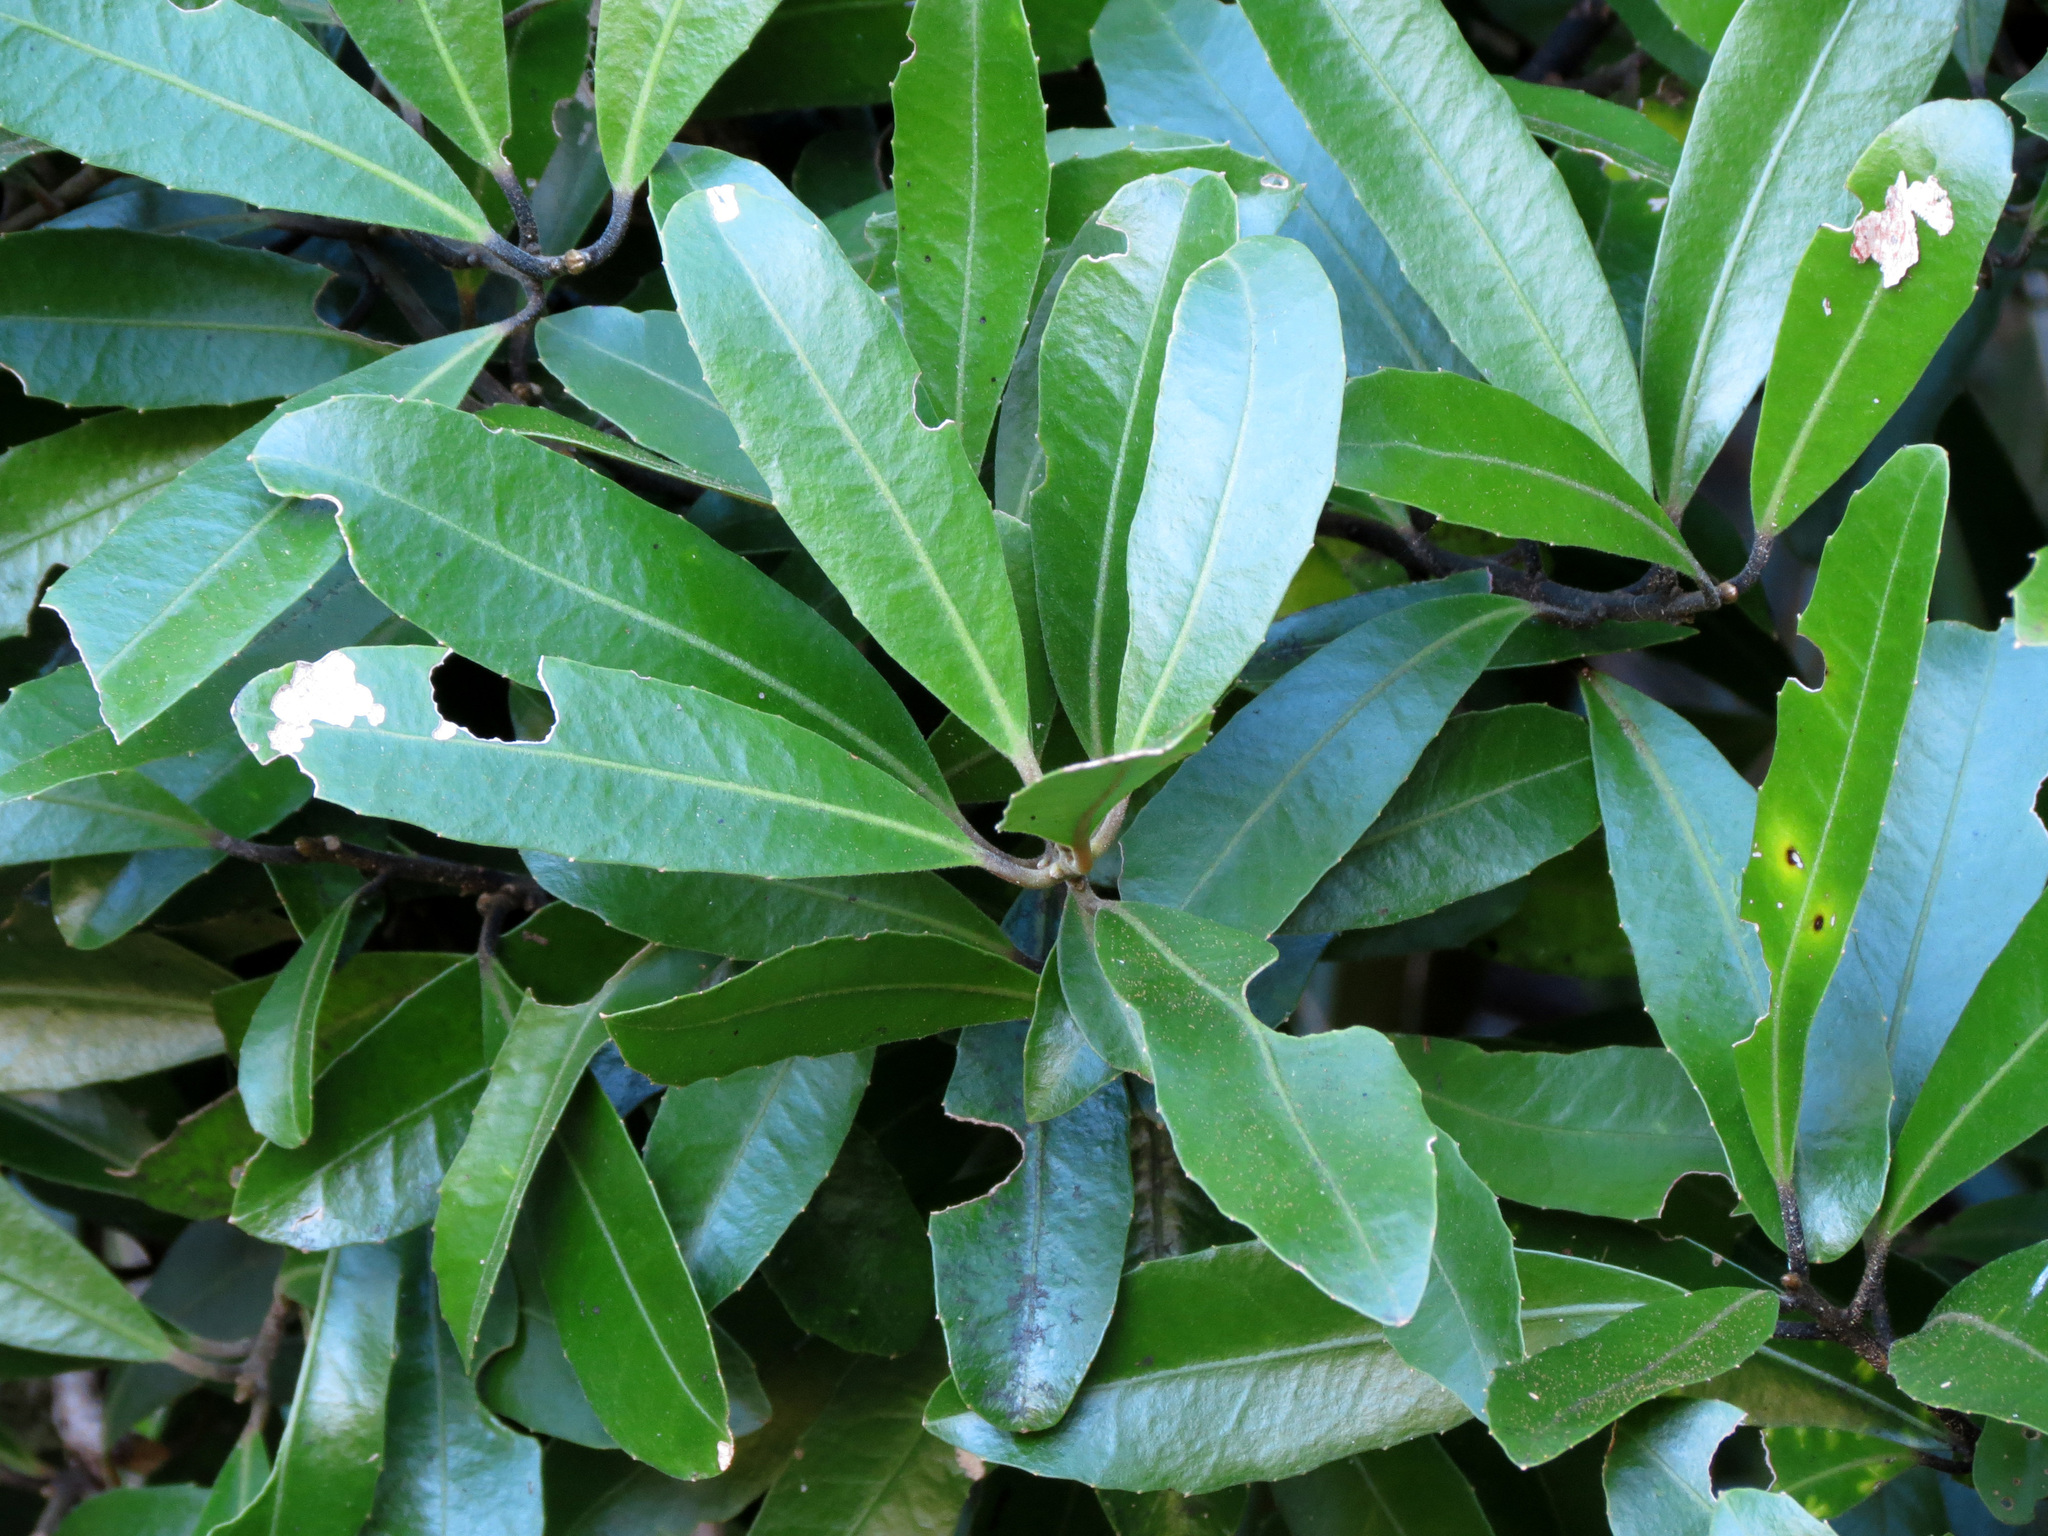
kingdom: Plantae
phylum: Tracheophyta
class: Magnoliopsida
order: Laurales
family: Monimiaceae
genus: Hedycarya
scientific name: Hedycarya arborea
